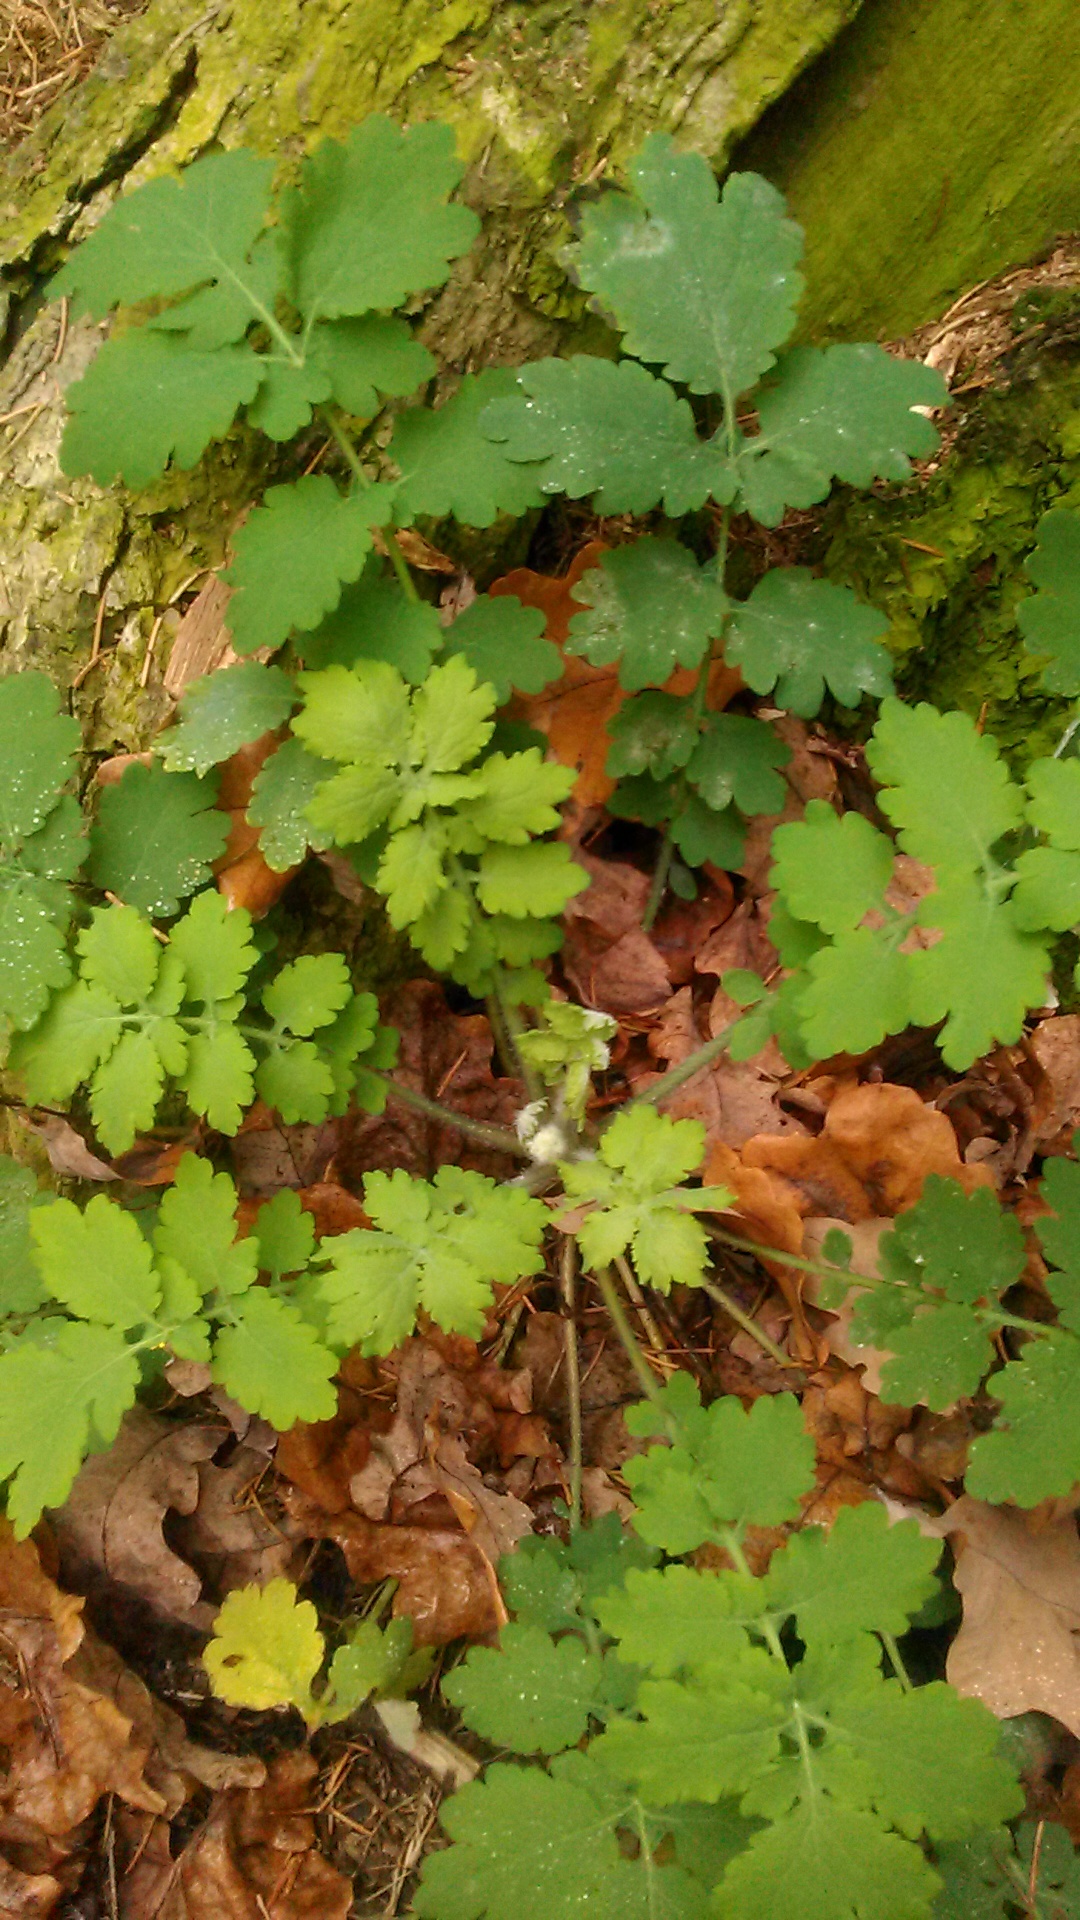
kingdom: Plantae
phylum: Tracheophyta
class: Magnoliopsida
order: Ranunculales
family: Papaveraceae
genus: Chelidonium
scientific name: Chelidonium majus
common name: Greater celandine
